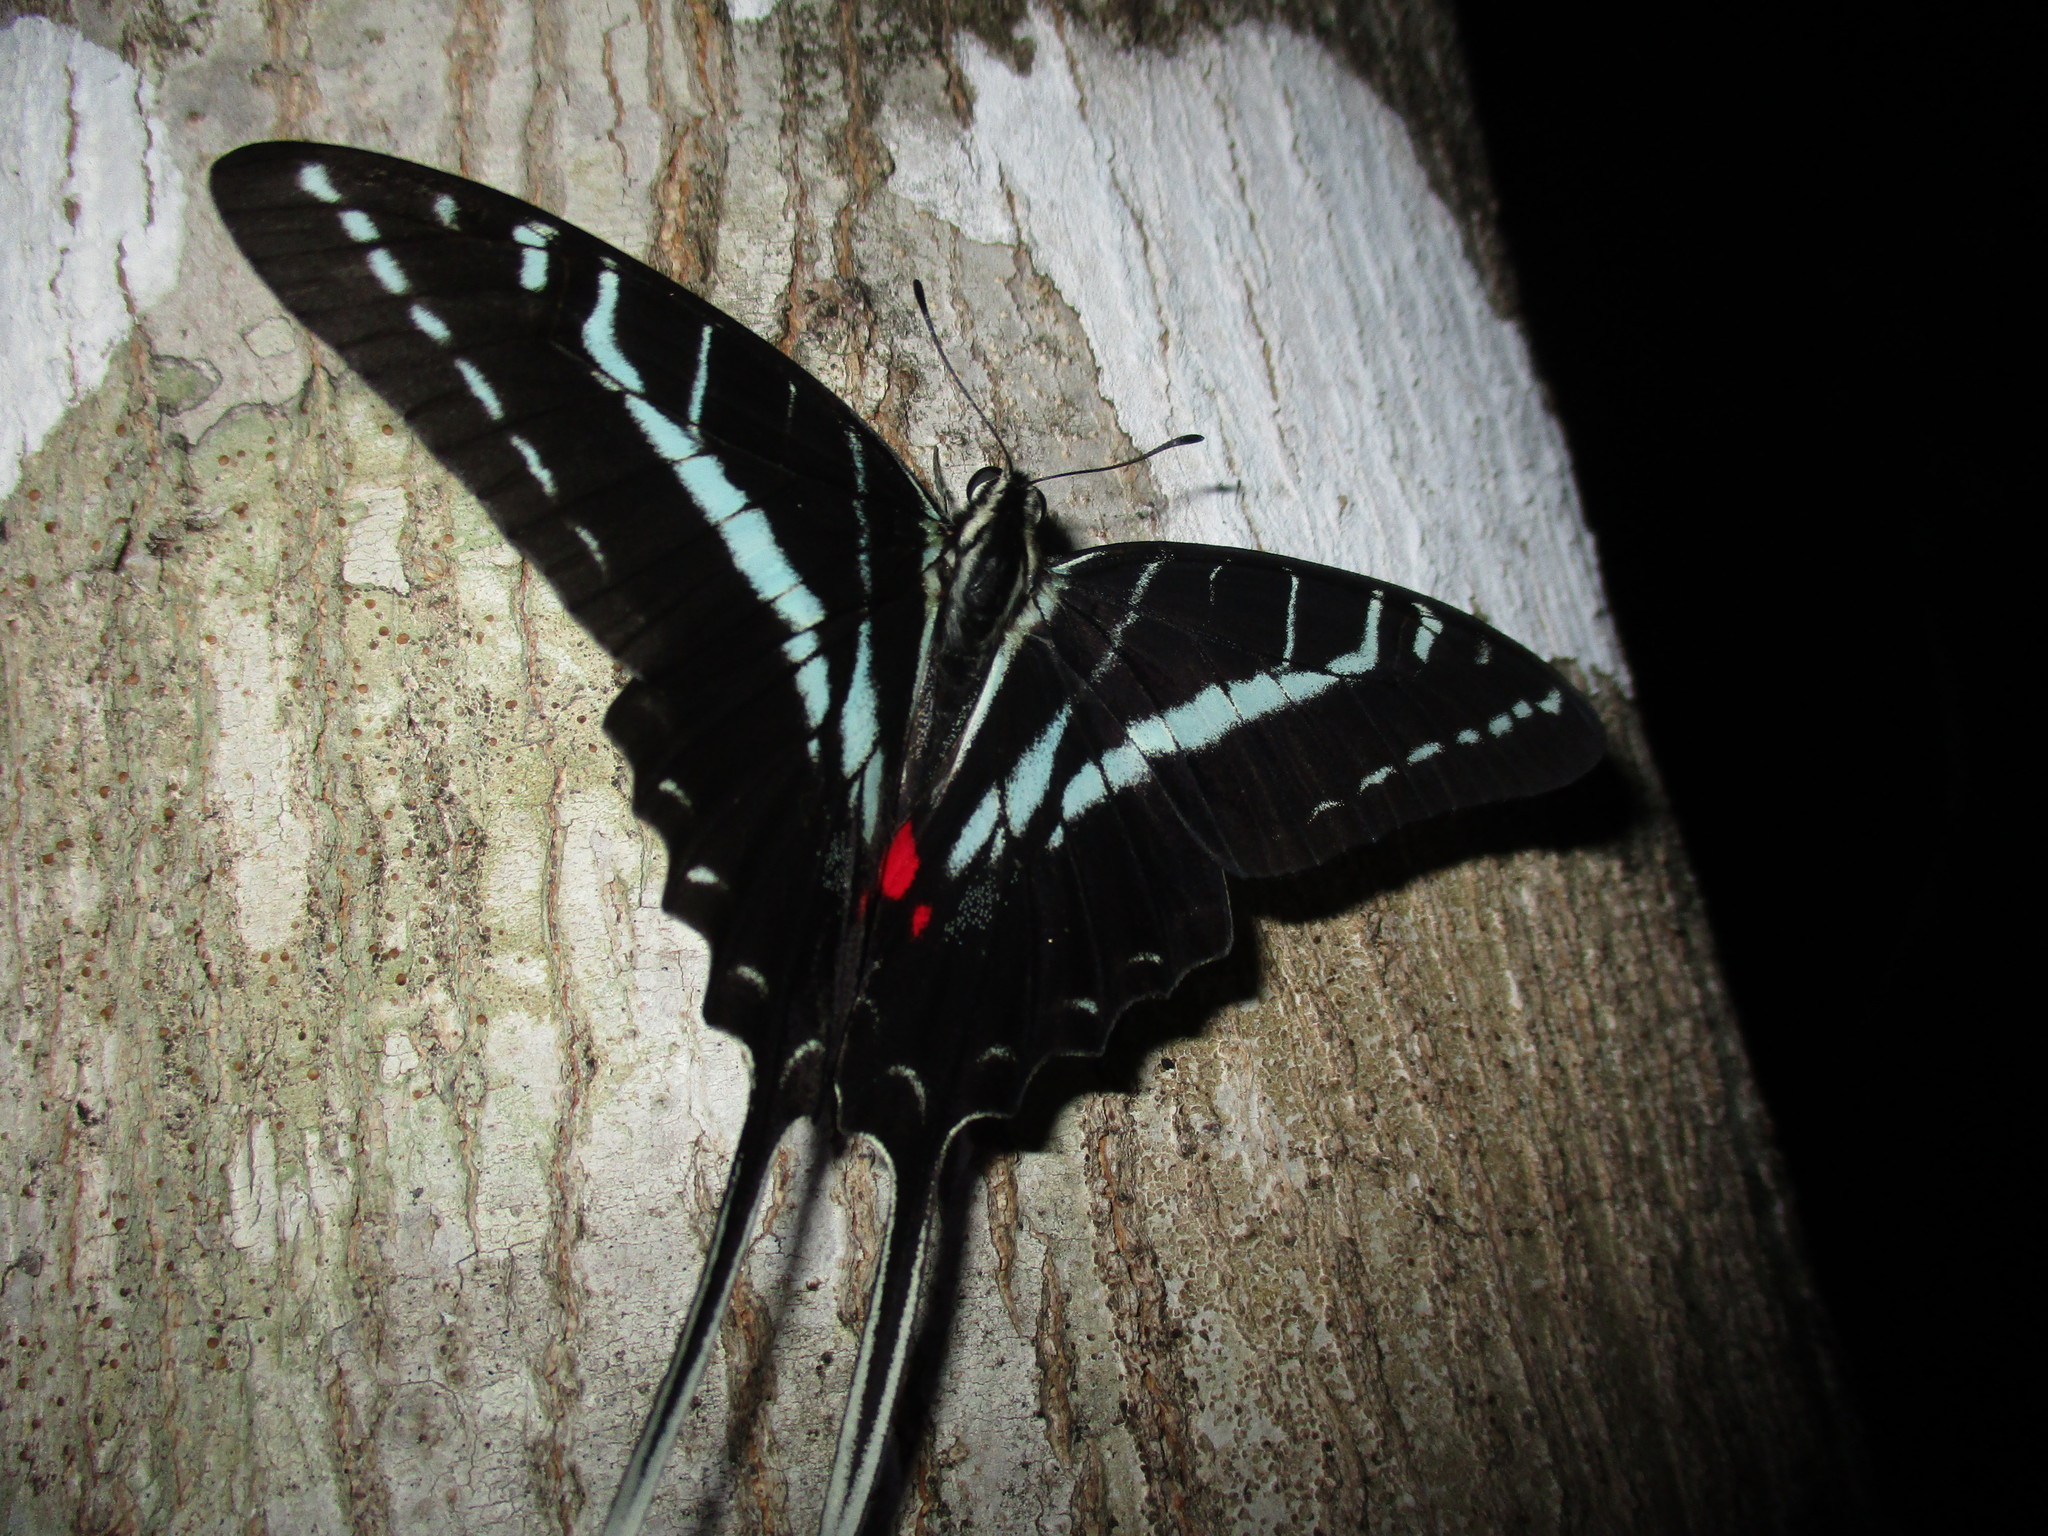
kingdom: Animalia
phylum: Arthropoda
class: Insecta
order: Lepidoptera
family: Papilionidae
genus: Protographium
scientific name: Protographium philolaus
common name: Dark zebra swallowtail
